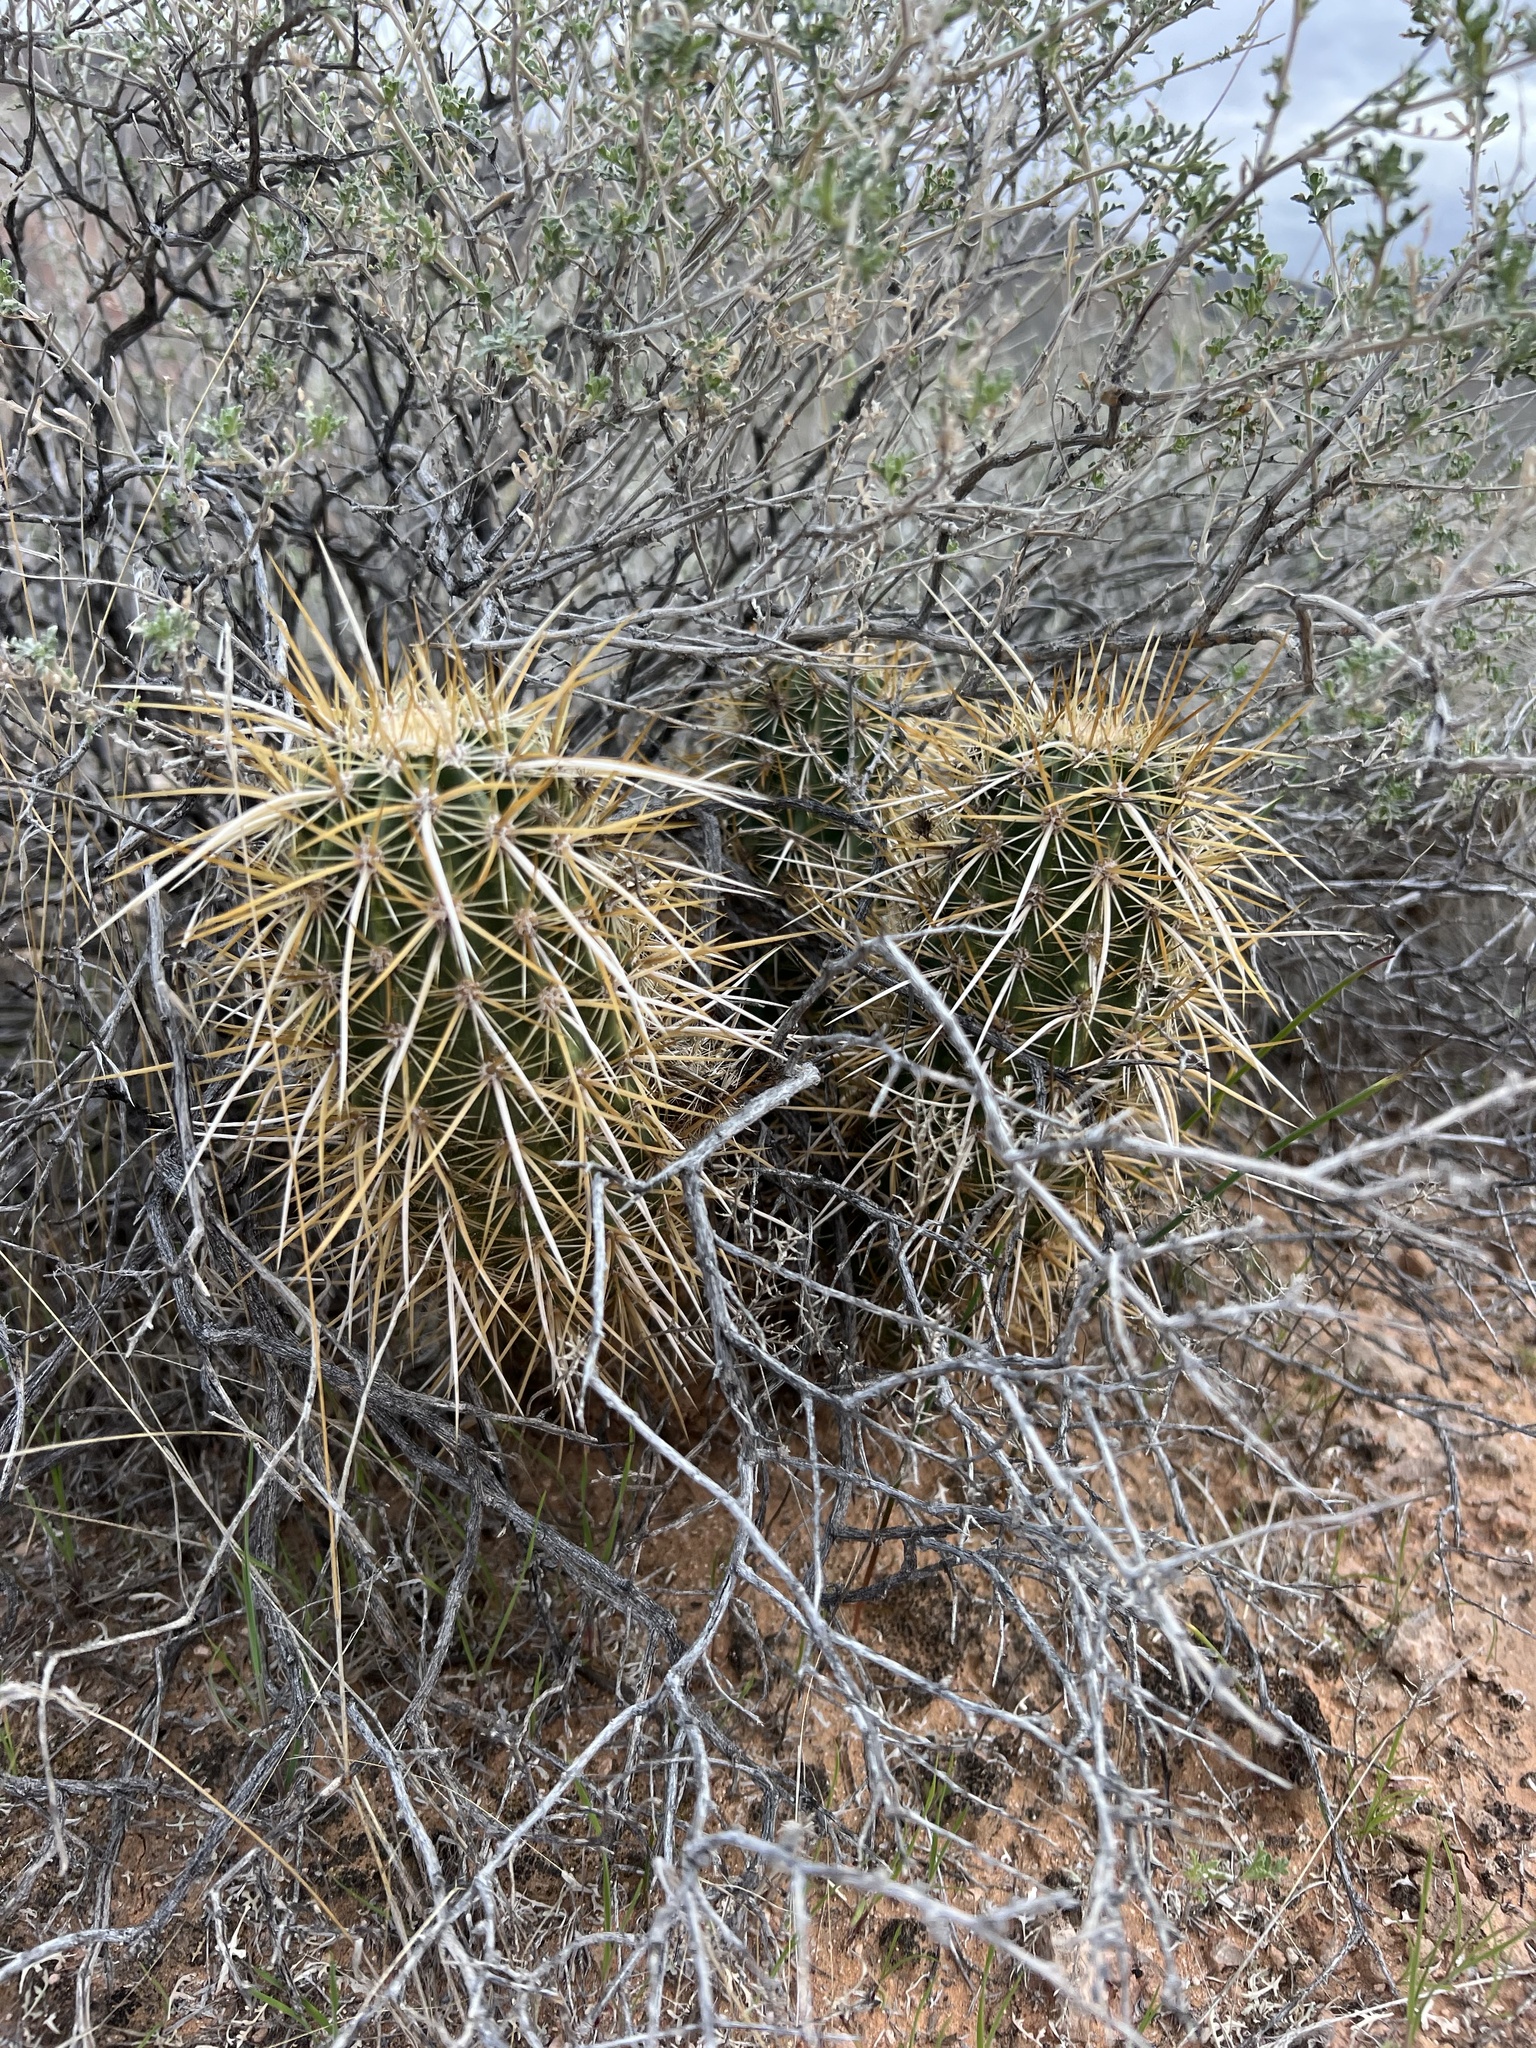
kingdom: Plantae
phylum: Tracheophyta
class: Magnoliopsida
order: Caryophyllales
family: Cactaceae
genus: Echinocereus
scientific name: Echinocereus engelmannii
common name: Engelmann's hedgehog cactus
